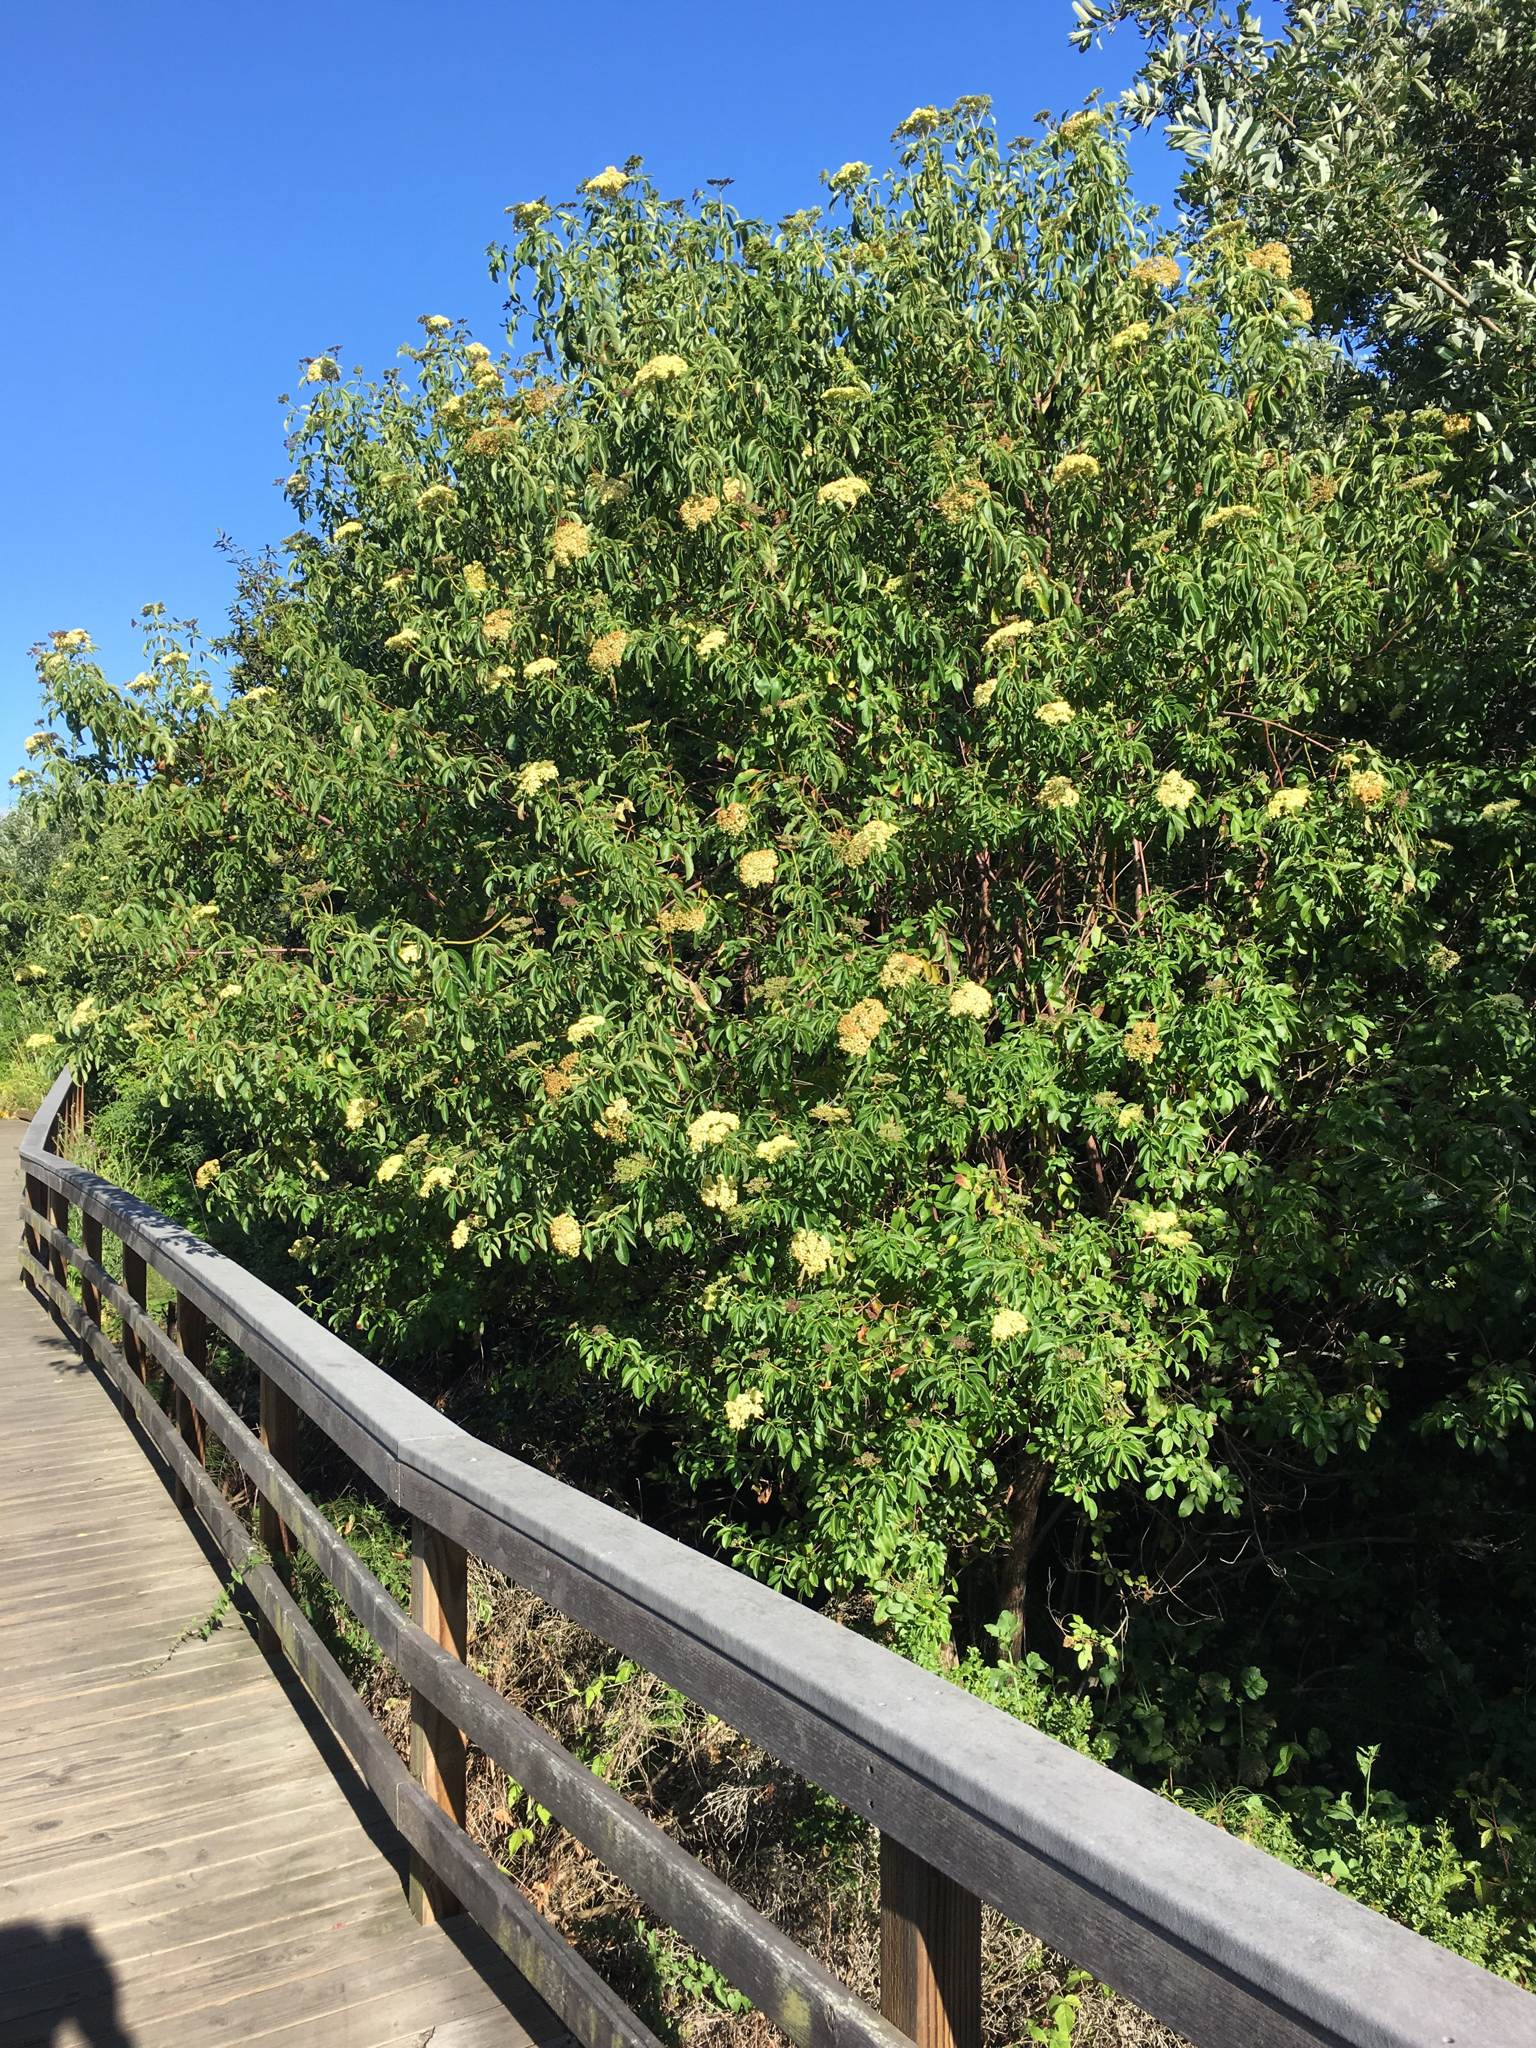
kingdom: Plantae
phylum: Tracheophyta
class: Magnoliopsida
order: Dipsacales
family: Viburnaceae
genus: Sambucus
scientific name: Sambucus cerulea
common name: Blue elder
